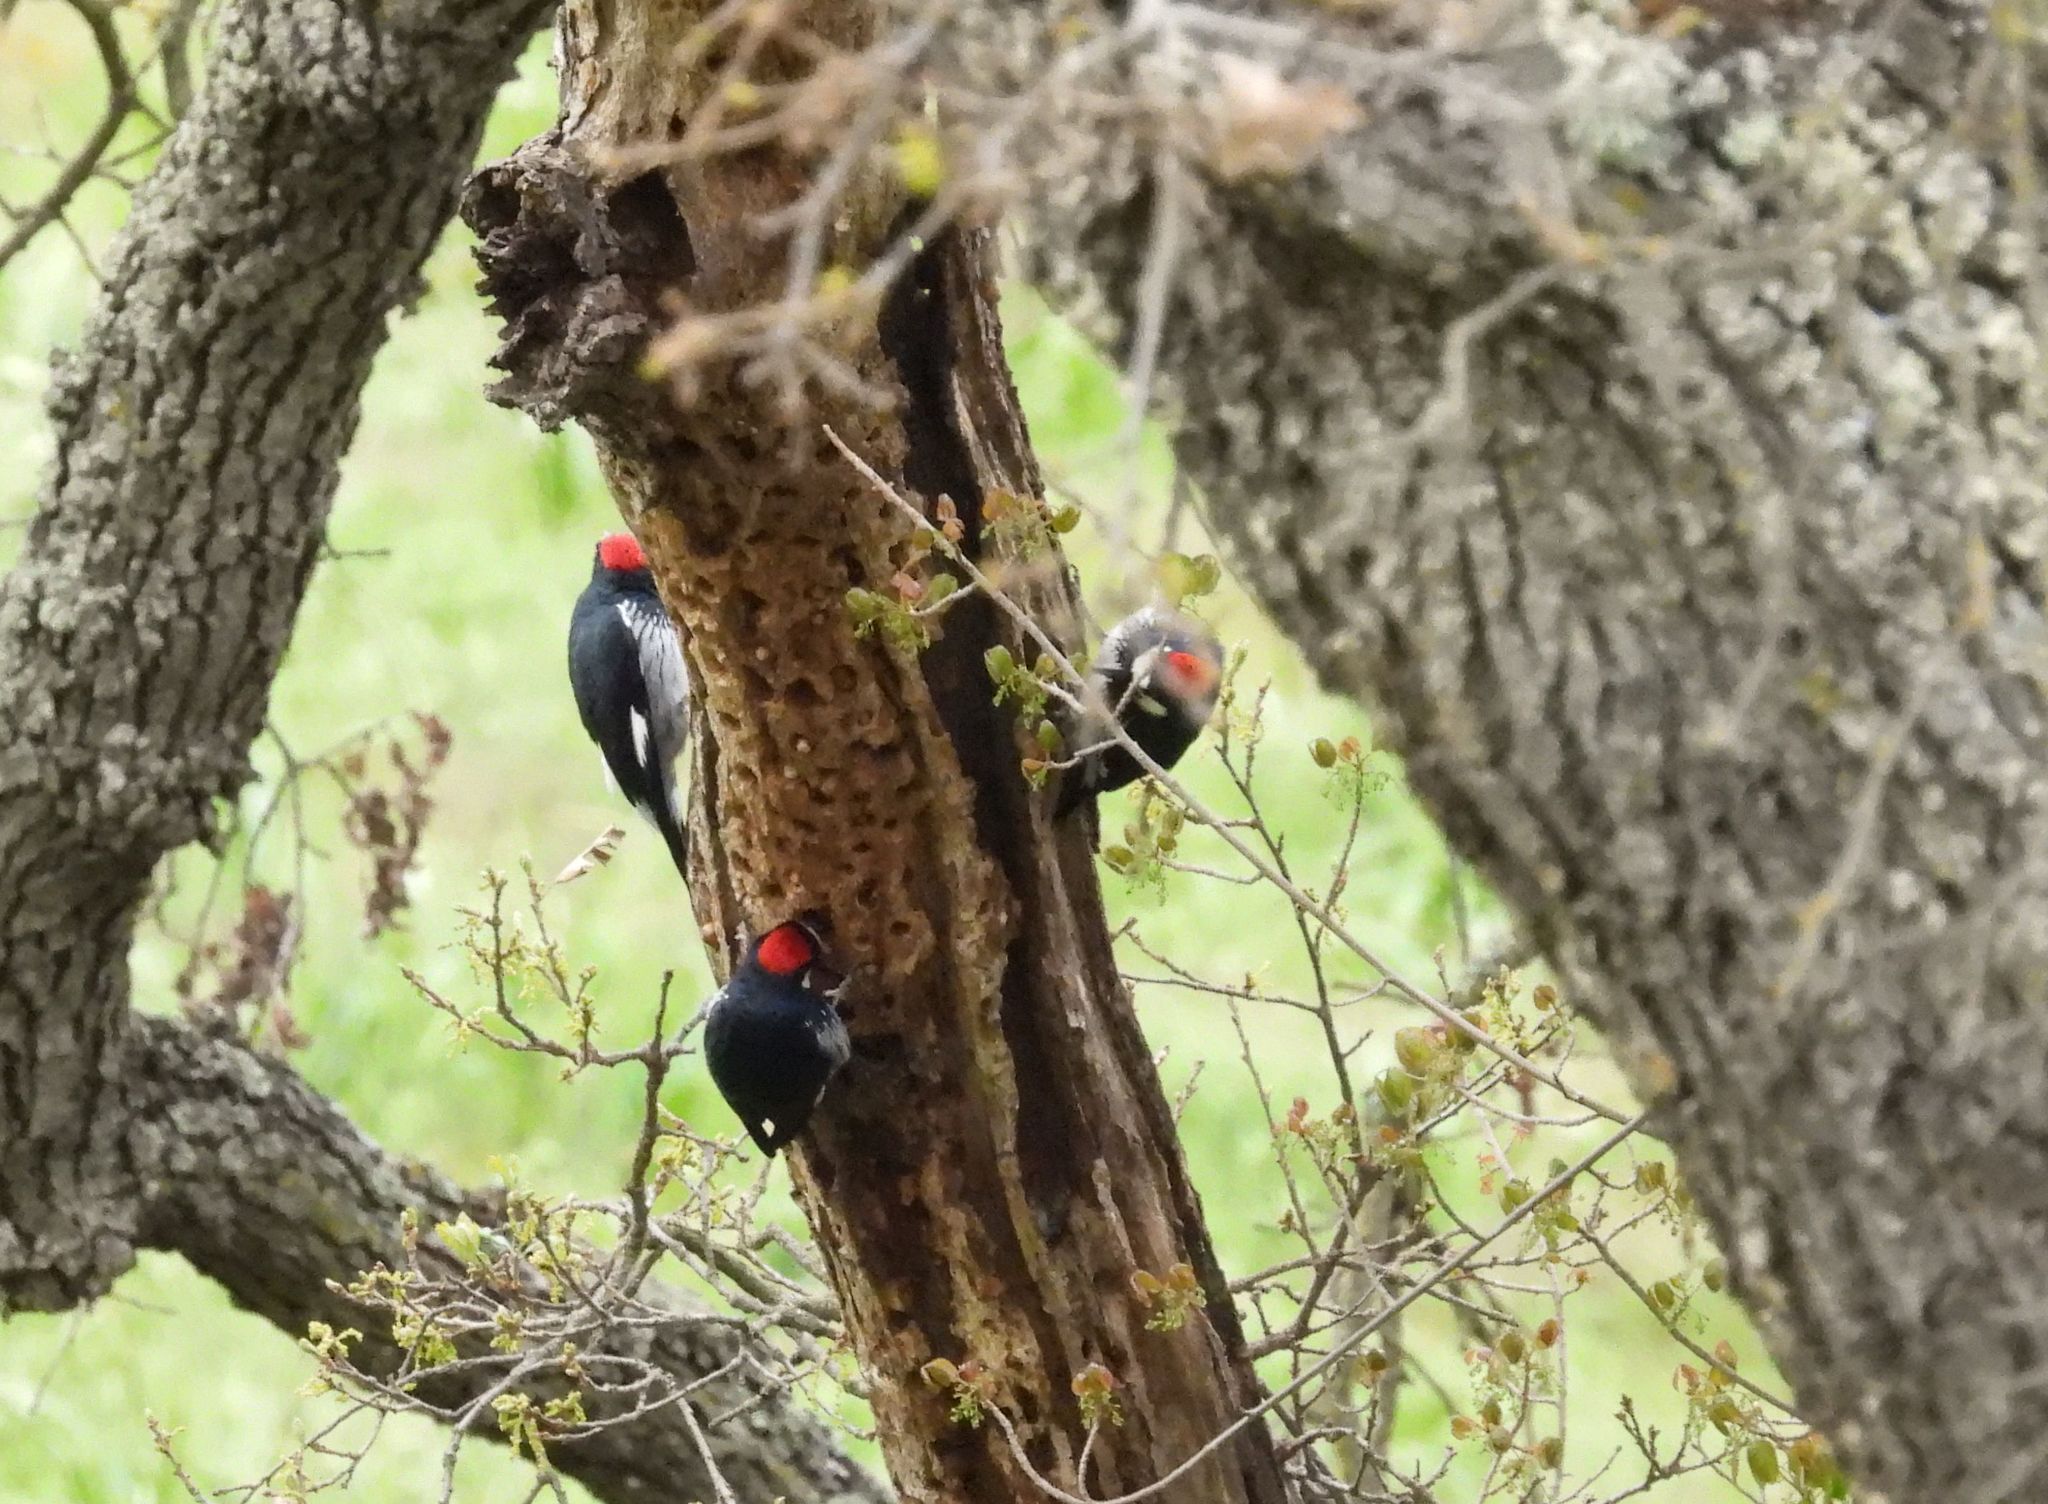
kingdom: Animalia
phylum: Chordata
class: Aves
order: Piciformes
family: Picidae
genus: Melanerpes
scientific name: Melanerpes formicivorus
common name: Acorn woodpecker
